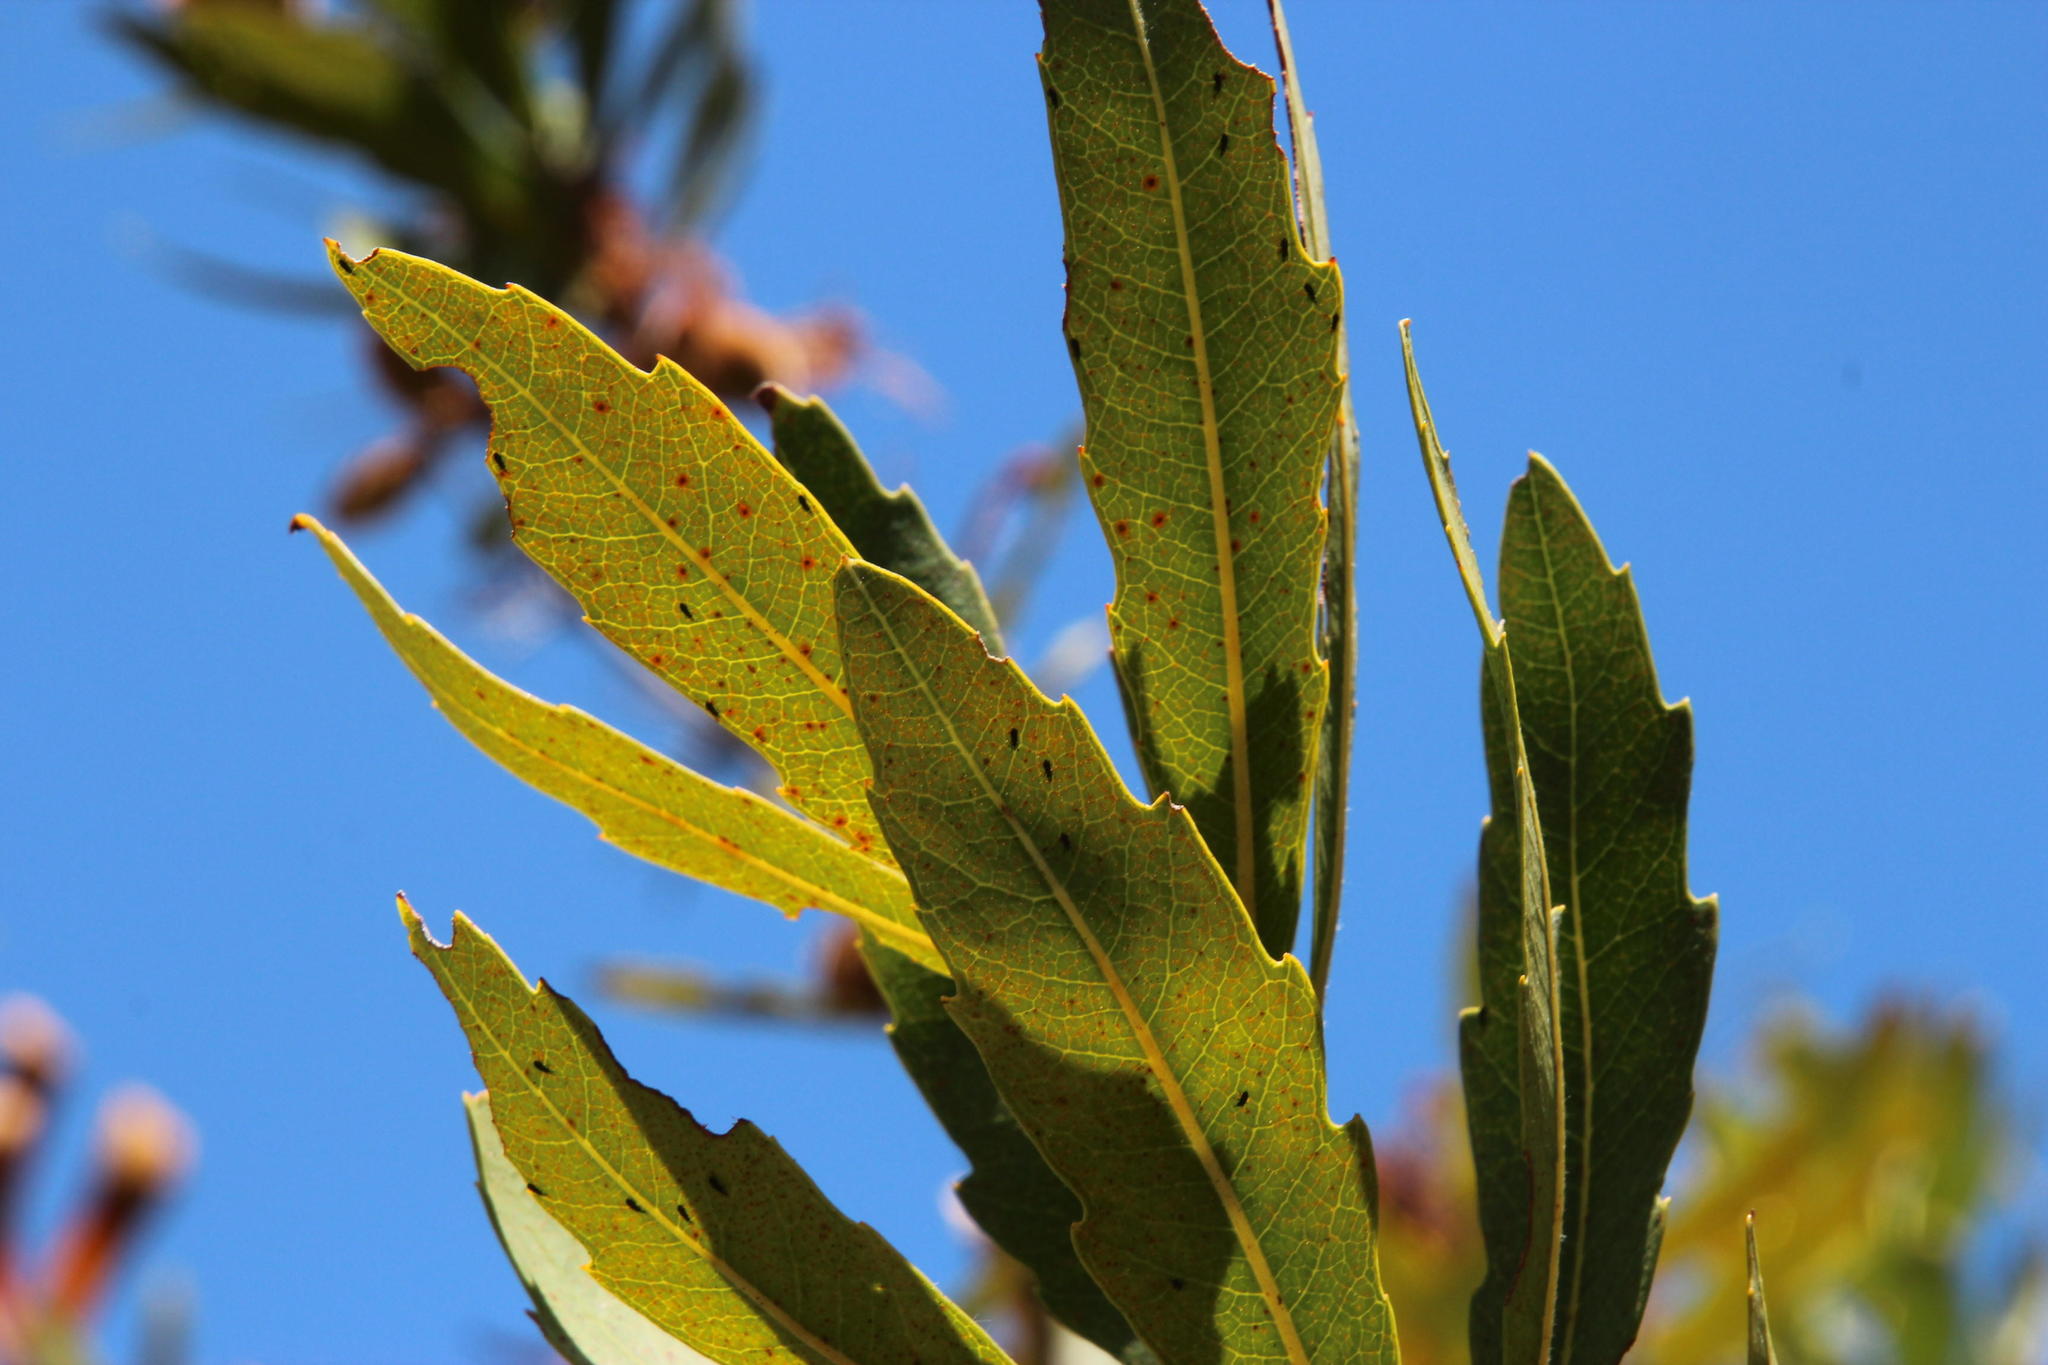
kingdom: Plantae
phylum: Tracheophyta
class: Magnoliopsida
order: Proteales
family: Proteaceae
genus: Brabejum
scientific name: Brabejum stellatifolium
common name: Wild almond
